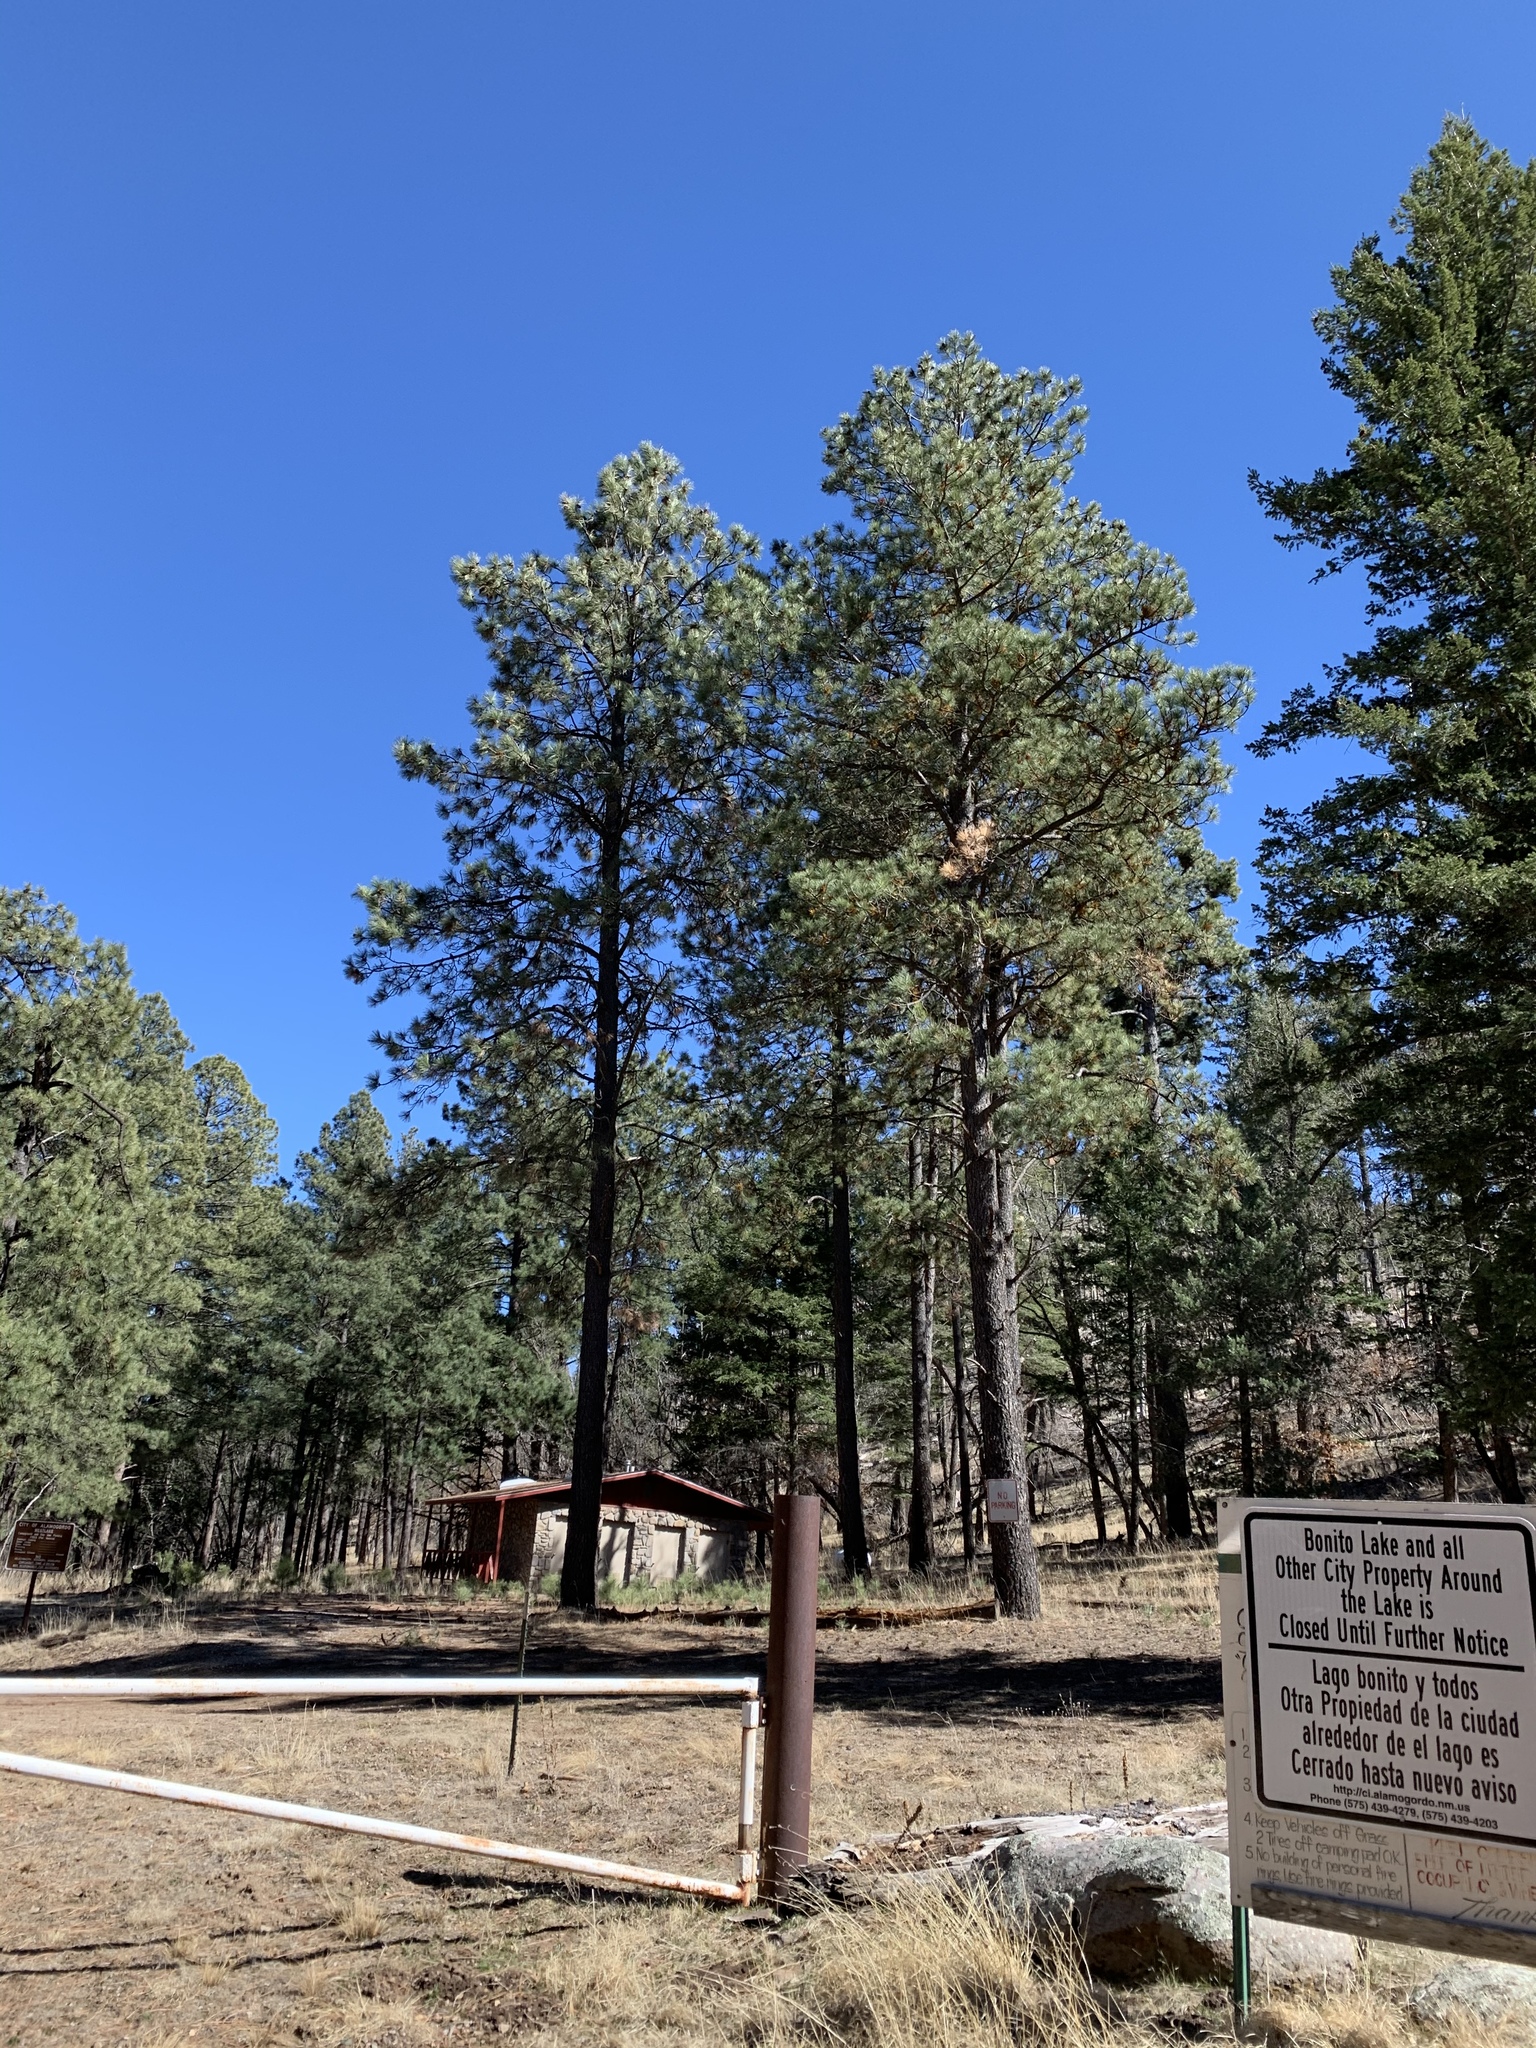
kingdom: Plantae
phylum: Tracheophyta
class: Pinopsida
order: Pinales
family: Pinaceae
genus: Pinus
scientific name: Pinus ponderosa
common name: Western yellow-pine
